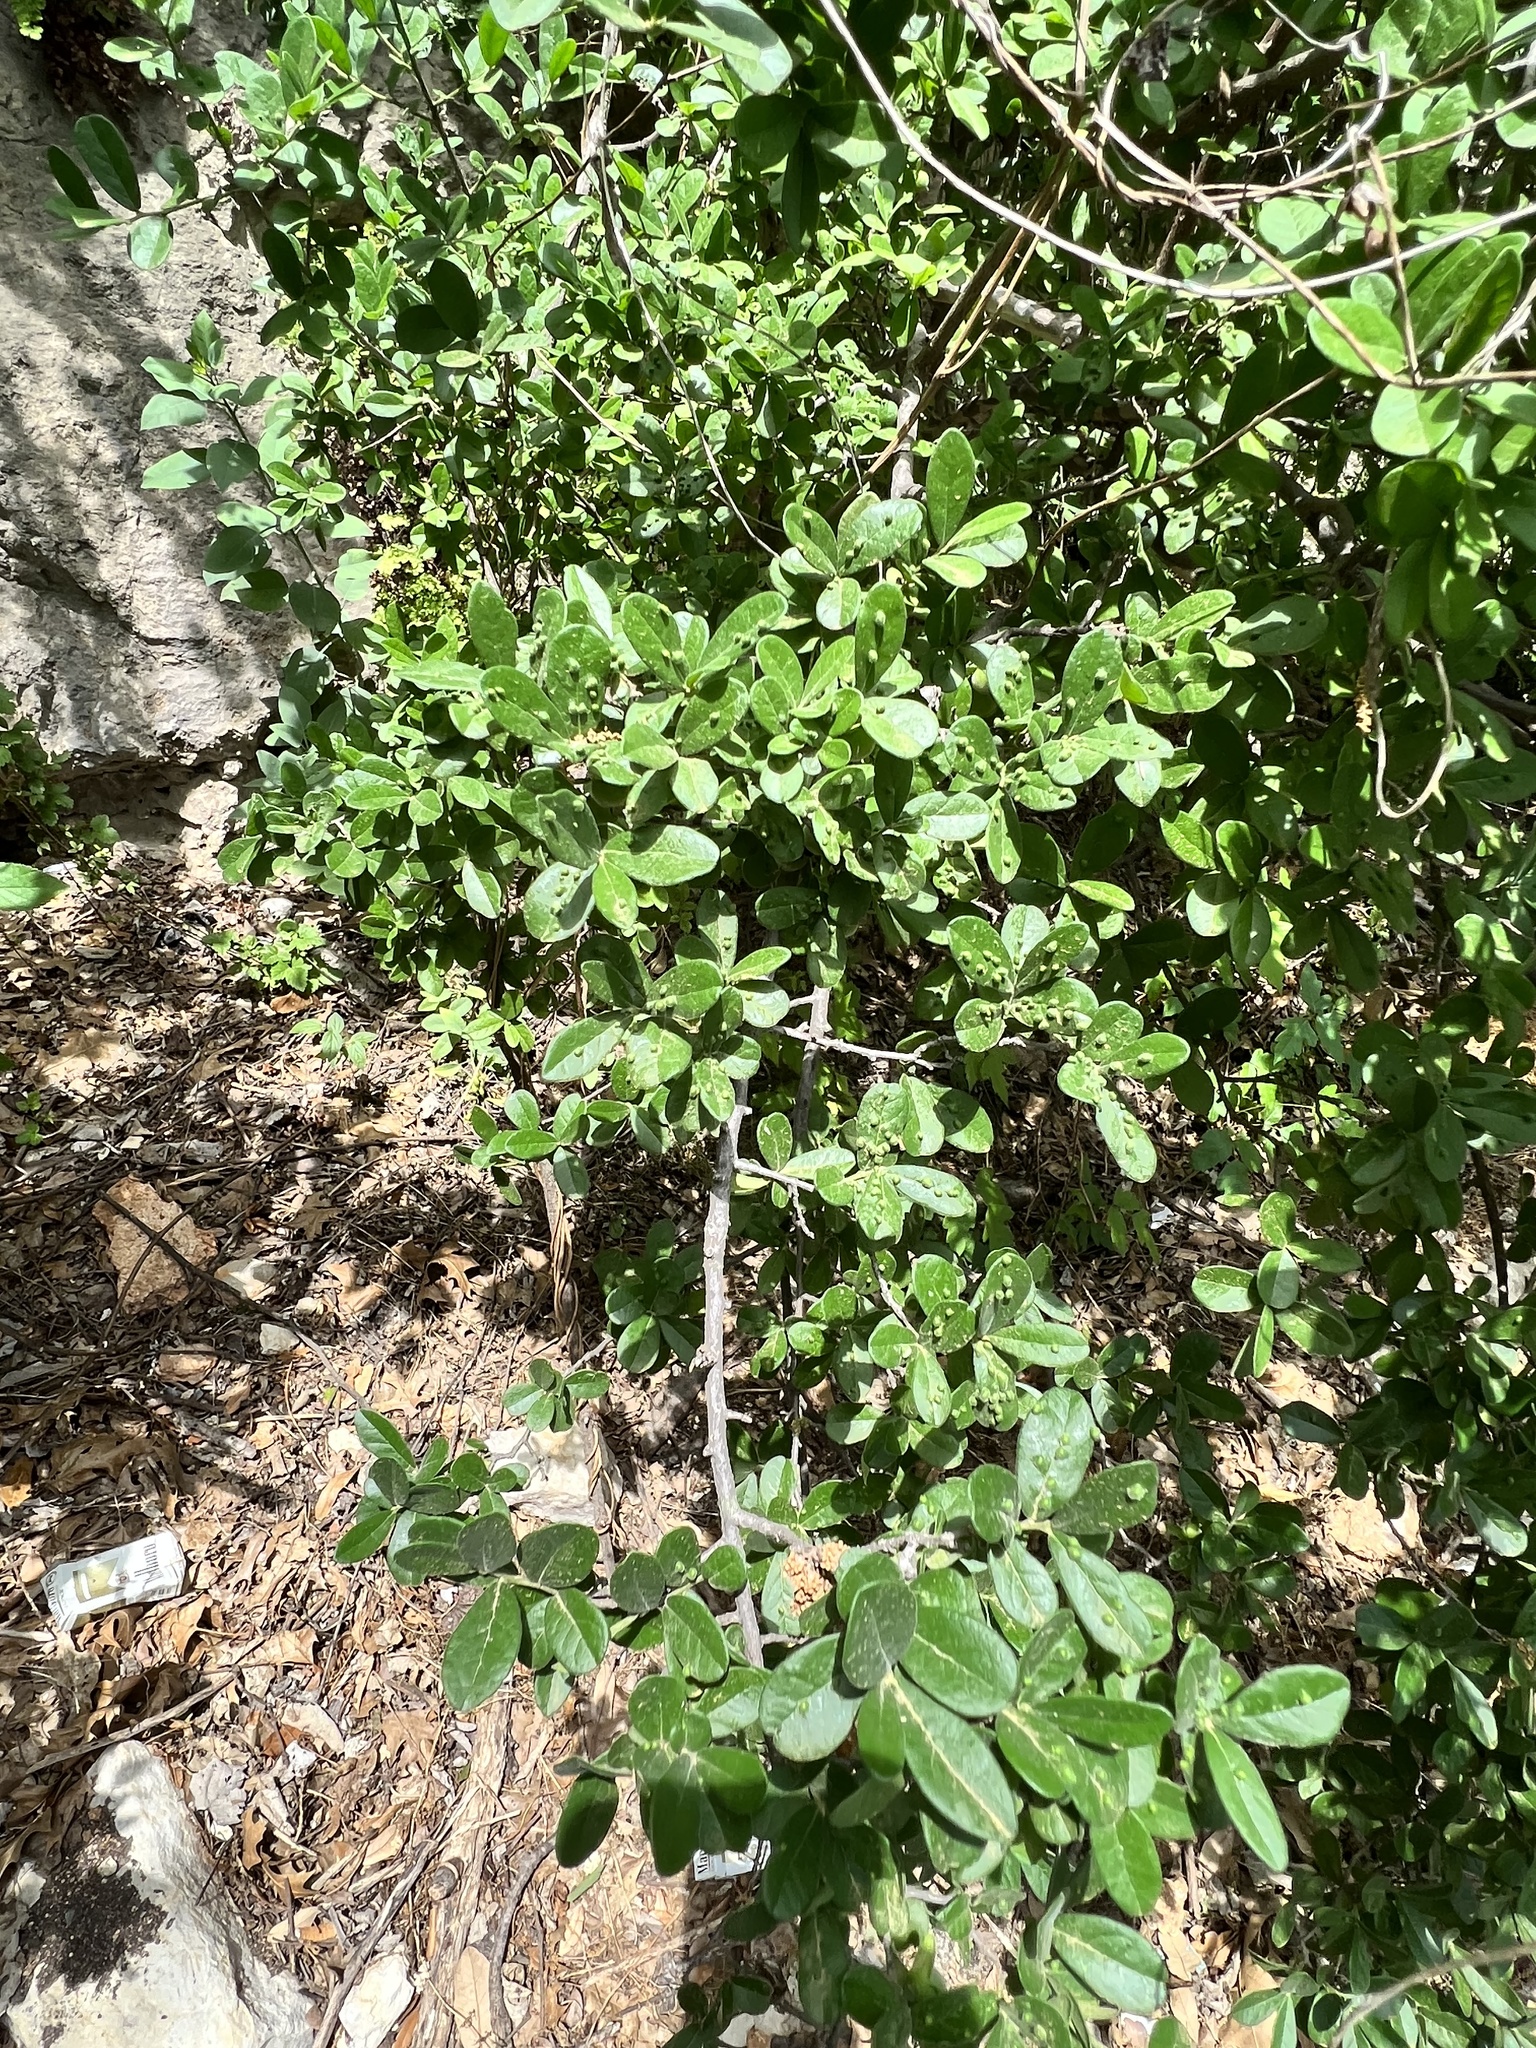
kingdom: Plantae
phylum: Tracheophyta
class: Magnoliopsida
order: Ericales
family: Ebenaceae
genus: Diospyros
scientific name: Diospyros texana
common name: Texas persimmon
